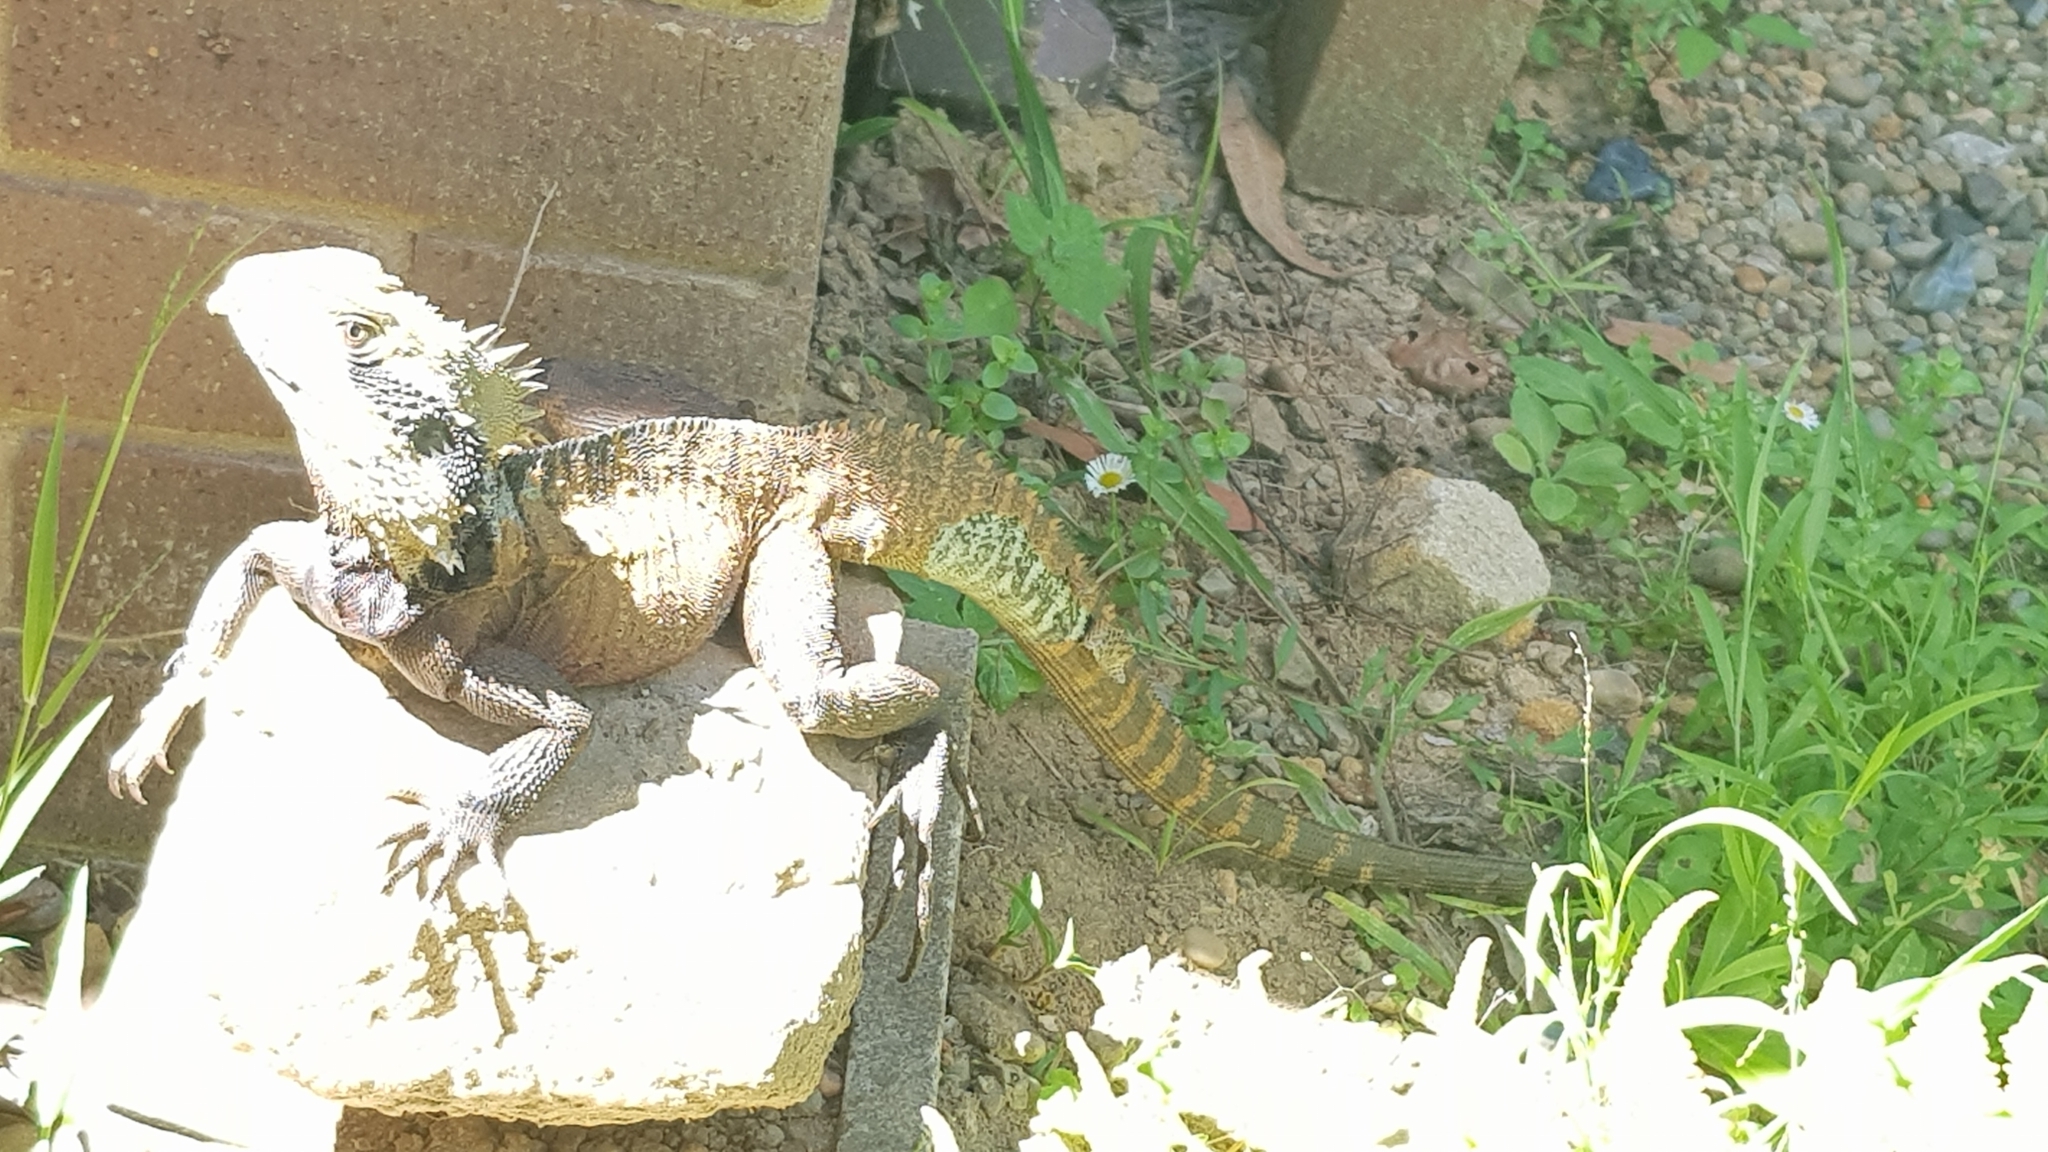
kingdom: Animalia
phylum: Chordata
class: Squamata
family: Agamidae
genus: Intellagama
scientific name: Intellagama lesueurii
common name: Eastern water dragon
